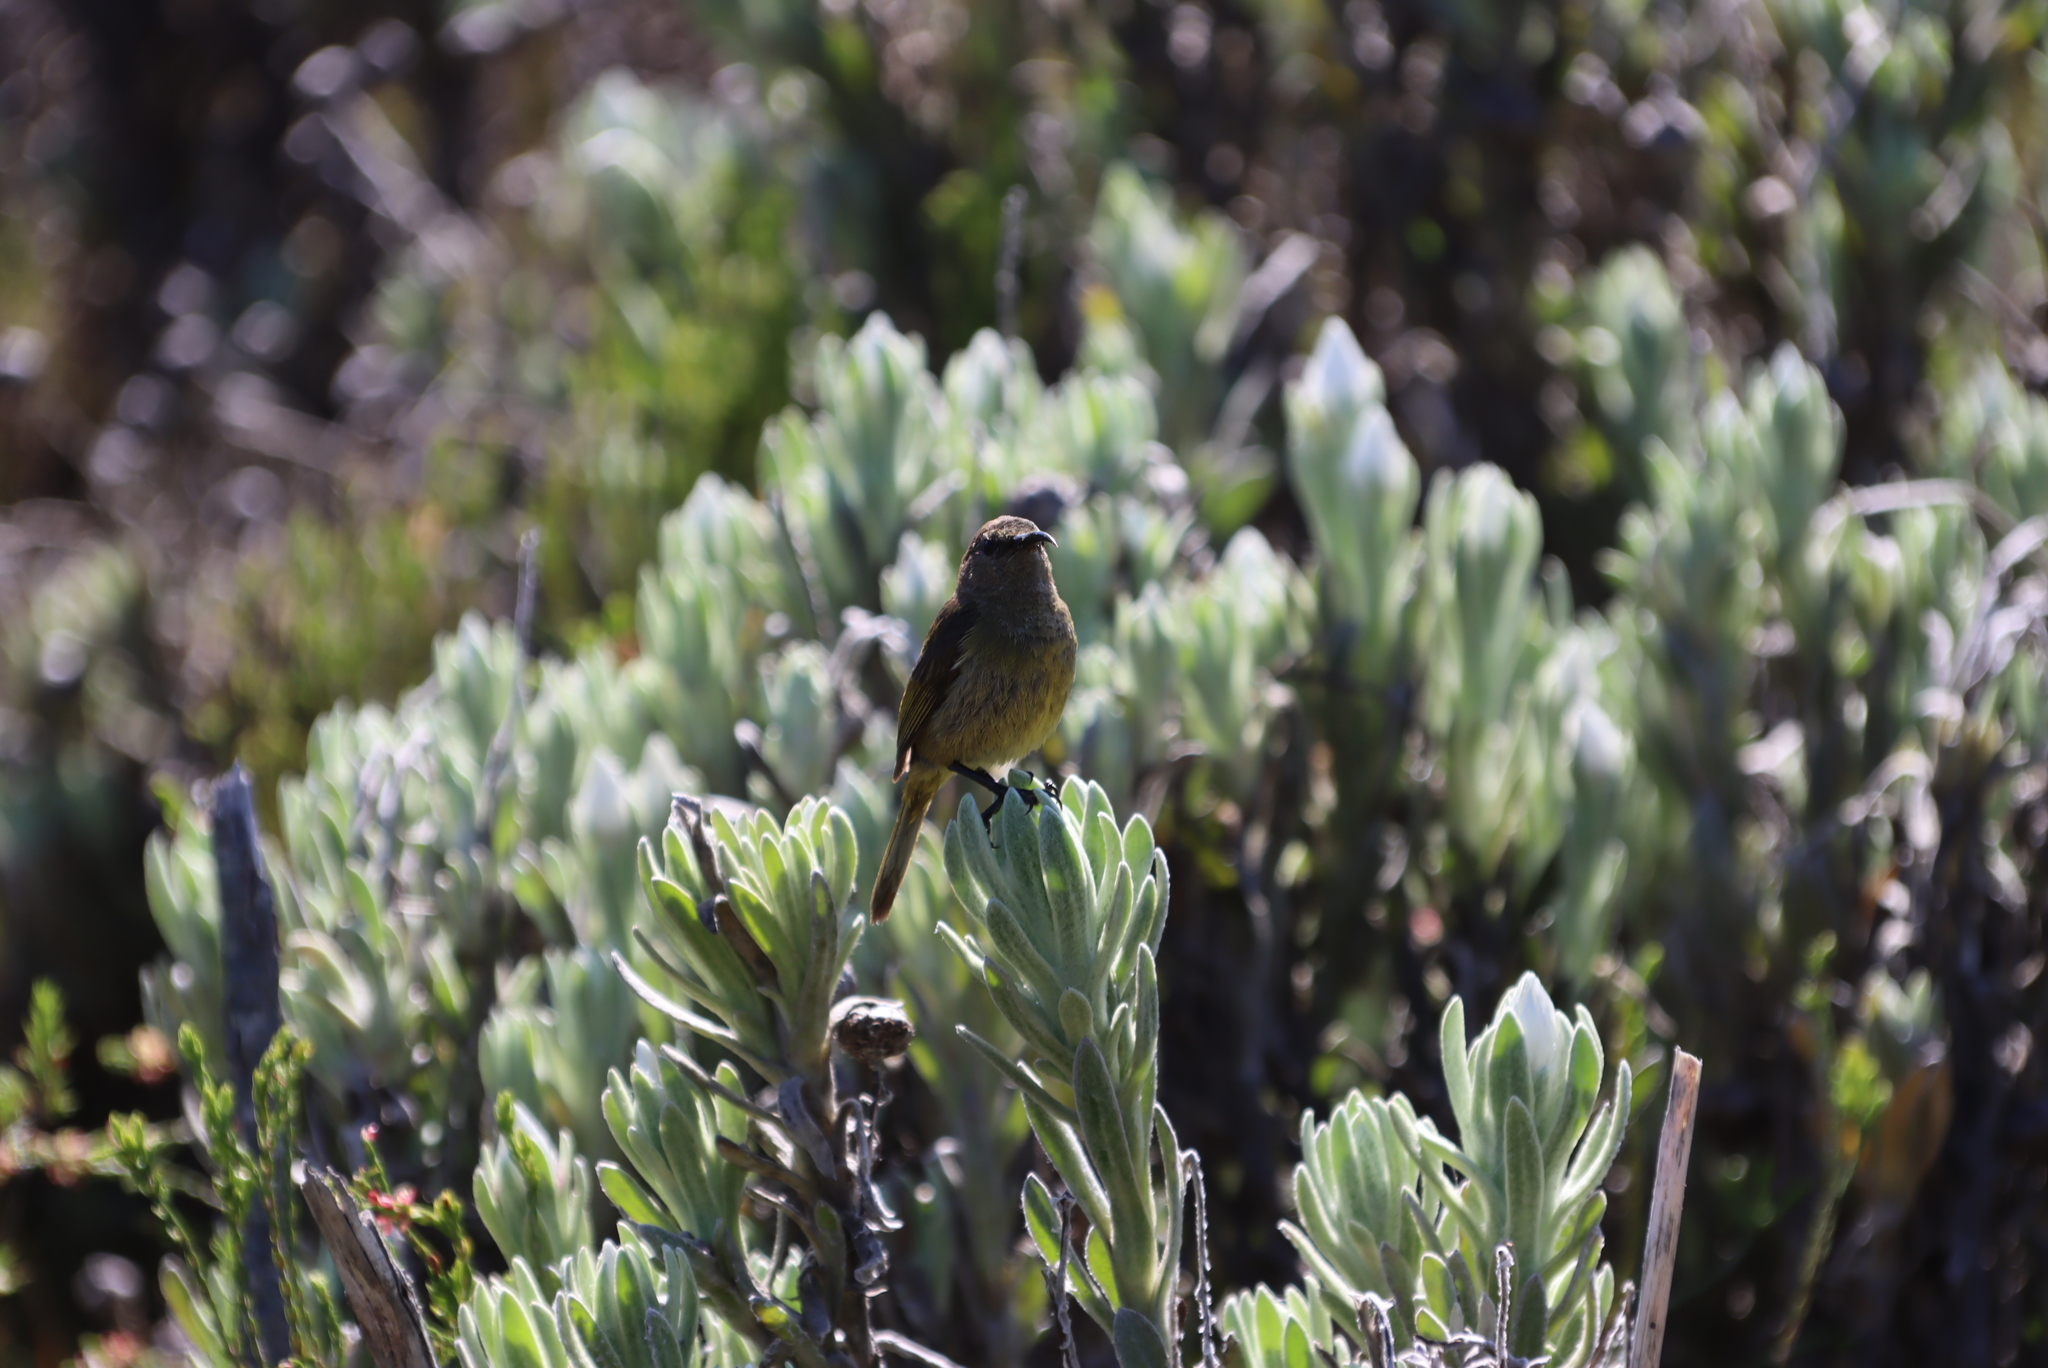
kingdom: Animalia
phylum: Chordata
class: Aves
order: Passeriformes
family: Nectariniidae
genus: Anthobaphes
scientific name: Anthobaphes violacea
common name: Orange-breasted sunbird
